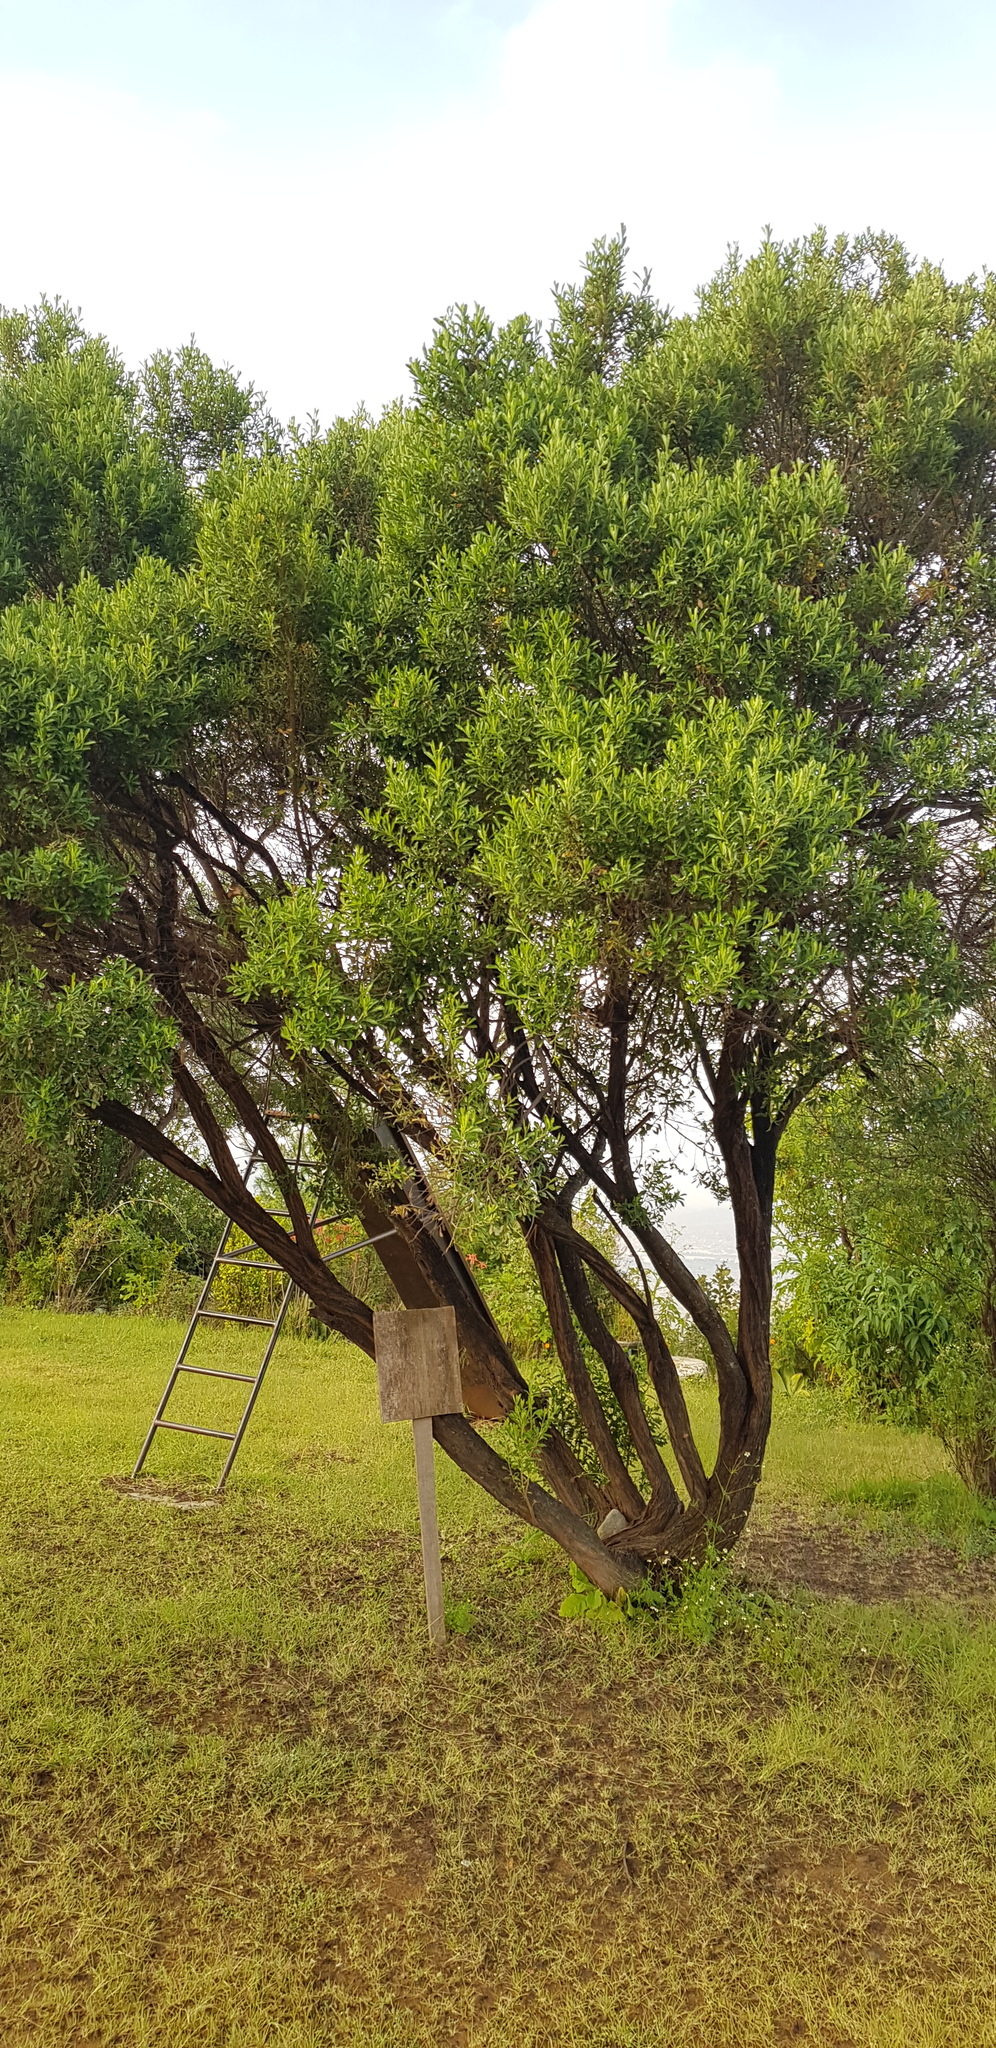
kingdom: Plantae
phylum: Tracheophyta
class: Magnoliopsida
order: Asterales
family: Asteraceae
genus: Baccharis
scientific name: Baccharis conferta
